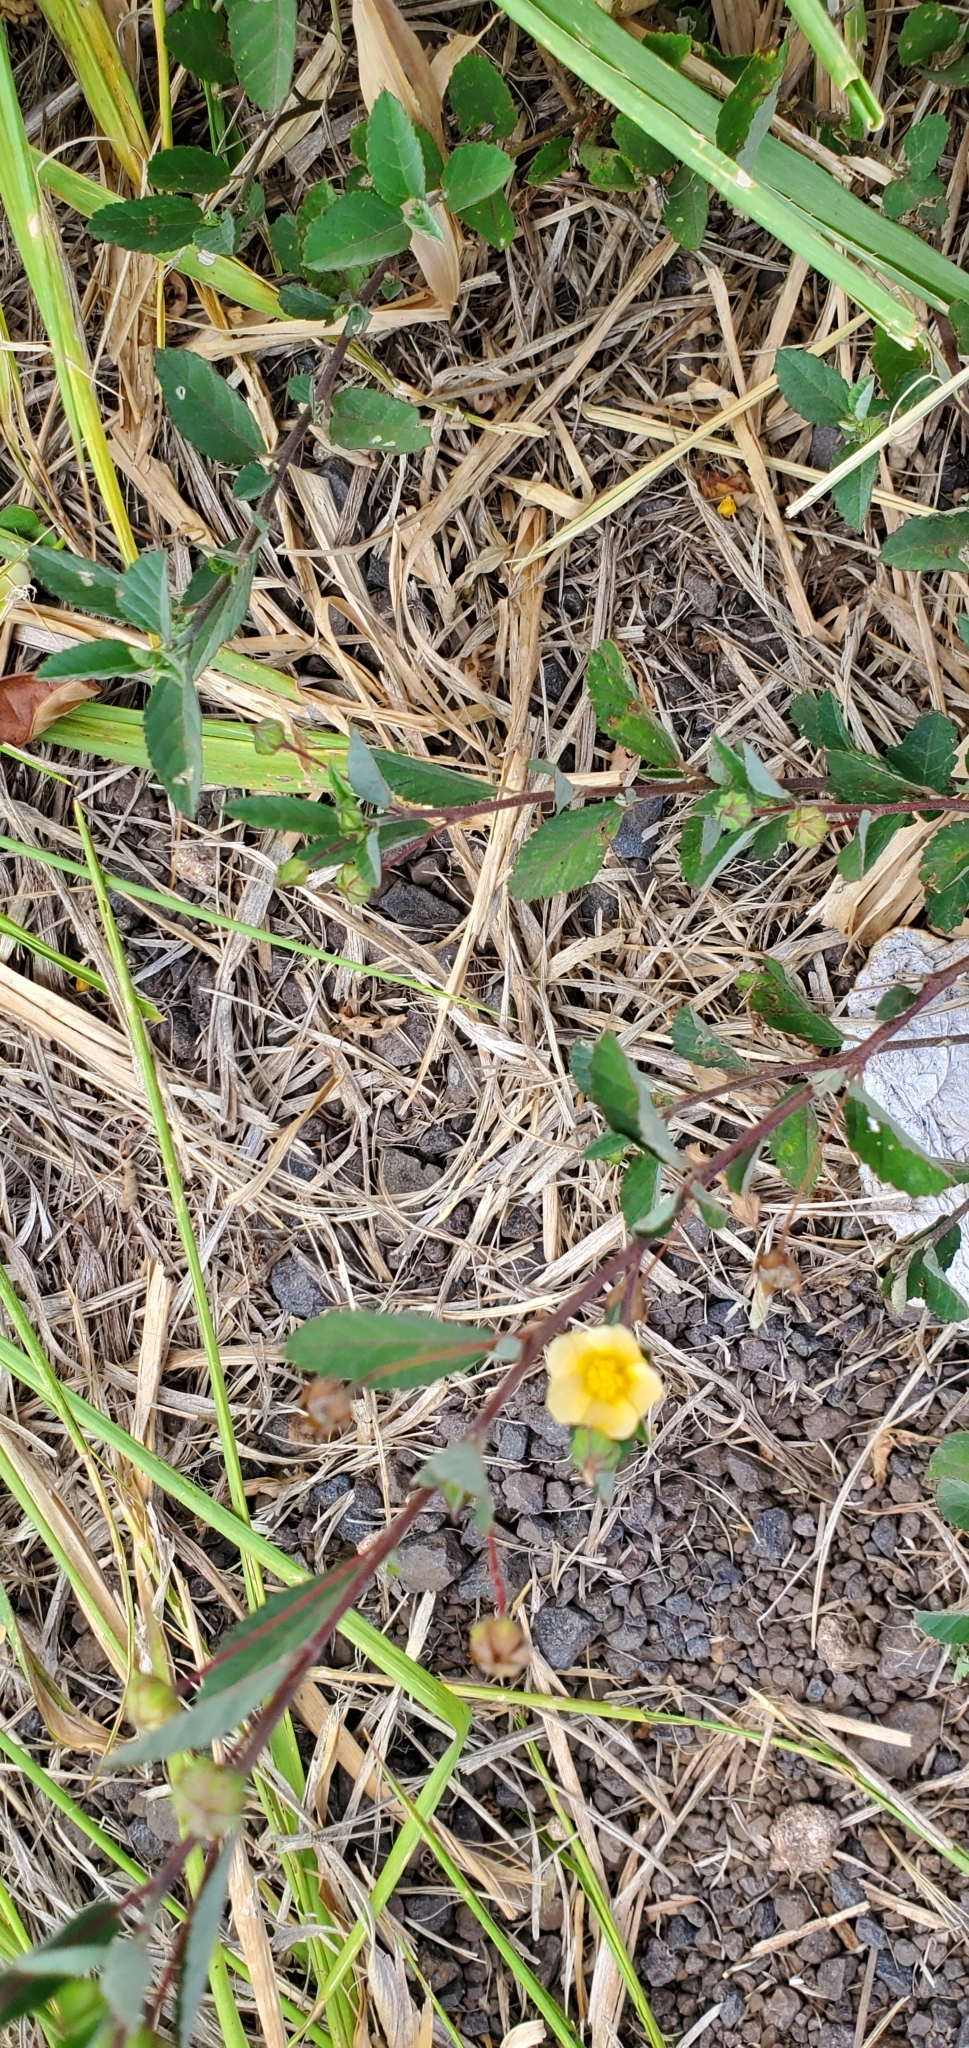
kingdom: Plantae
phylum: Tracheophyta
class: Magnoliopsida
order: Malvales
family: Malvaceae
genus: Sida
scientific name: Sida rhombifolia
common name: Queensland-hemp
